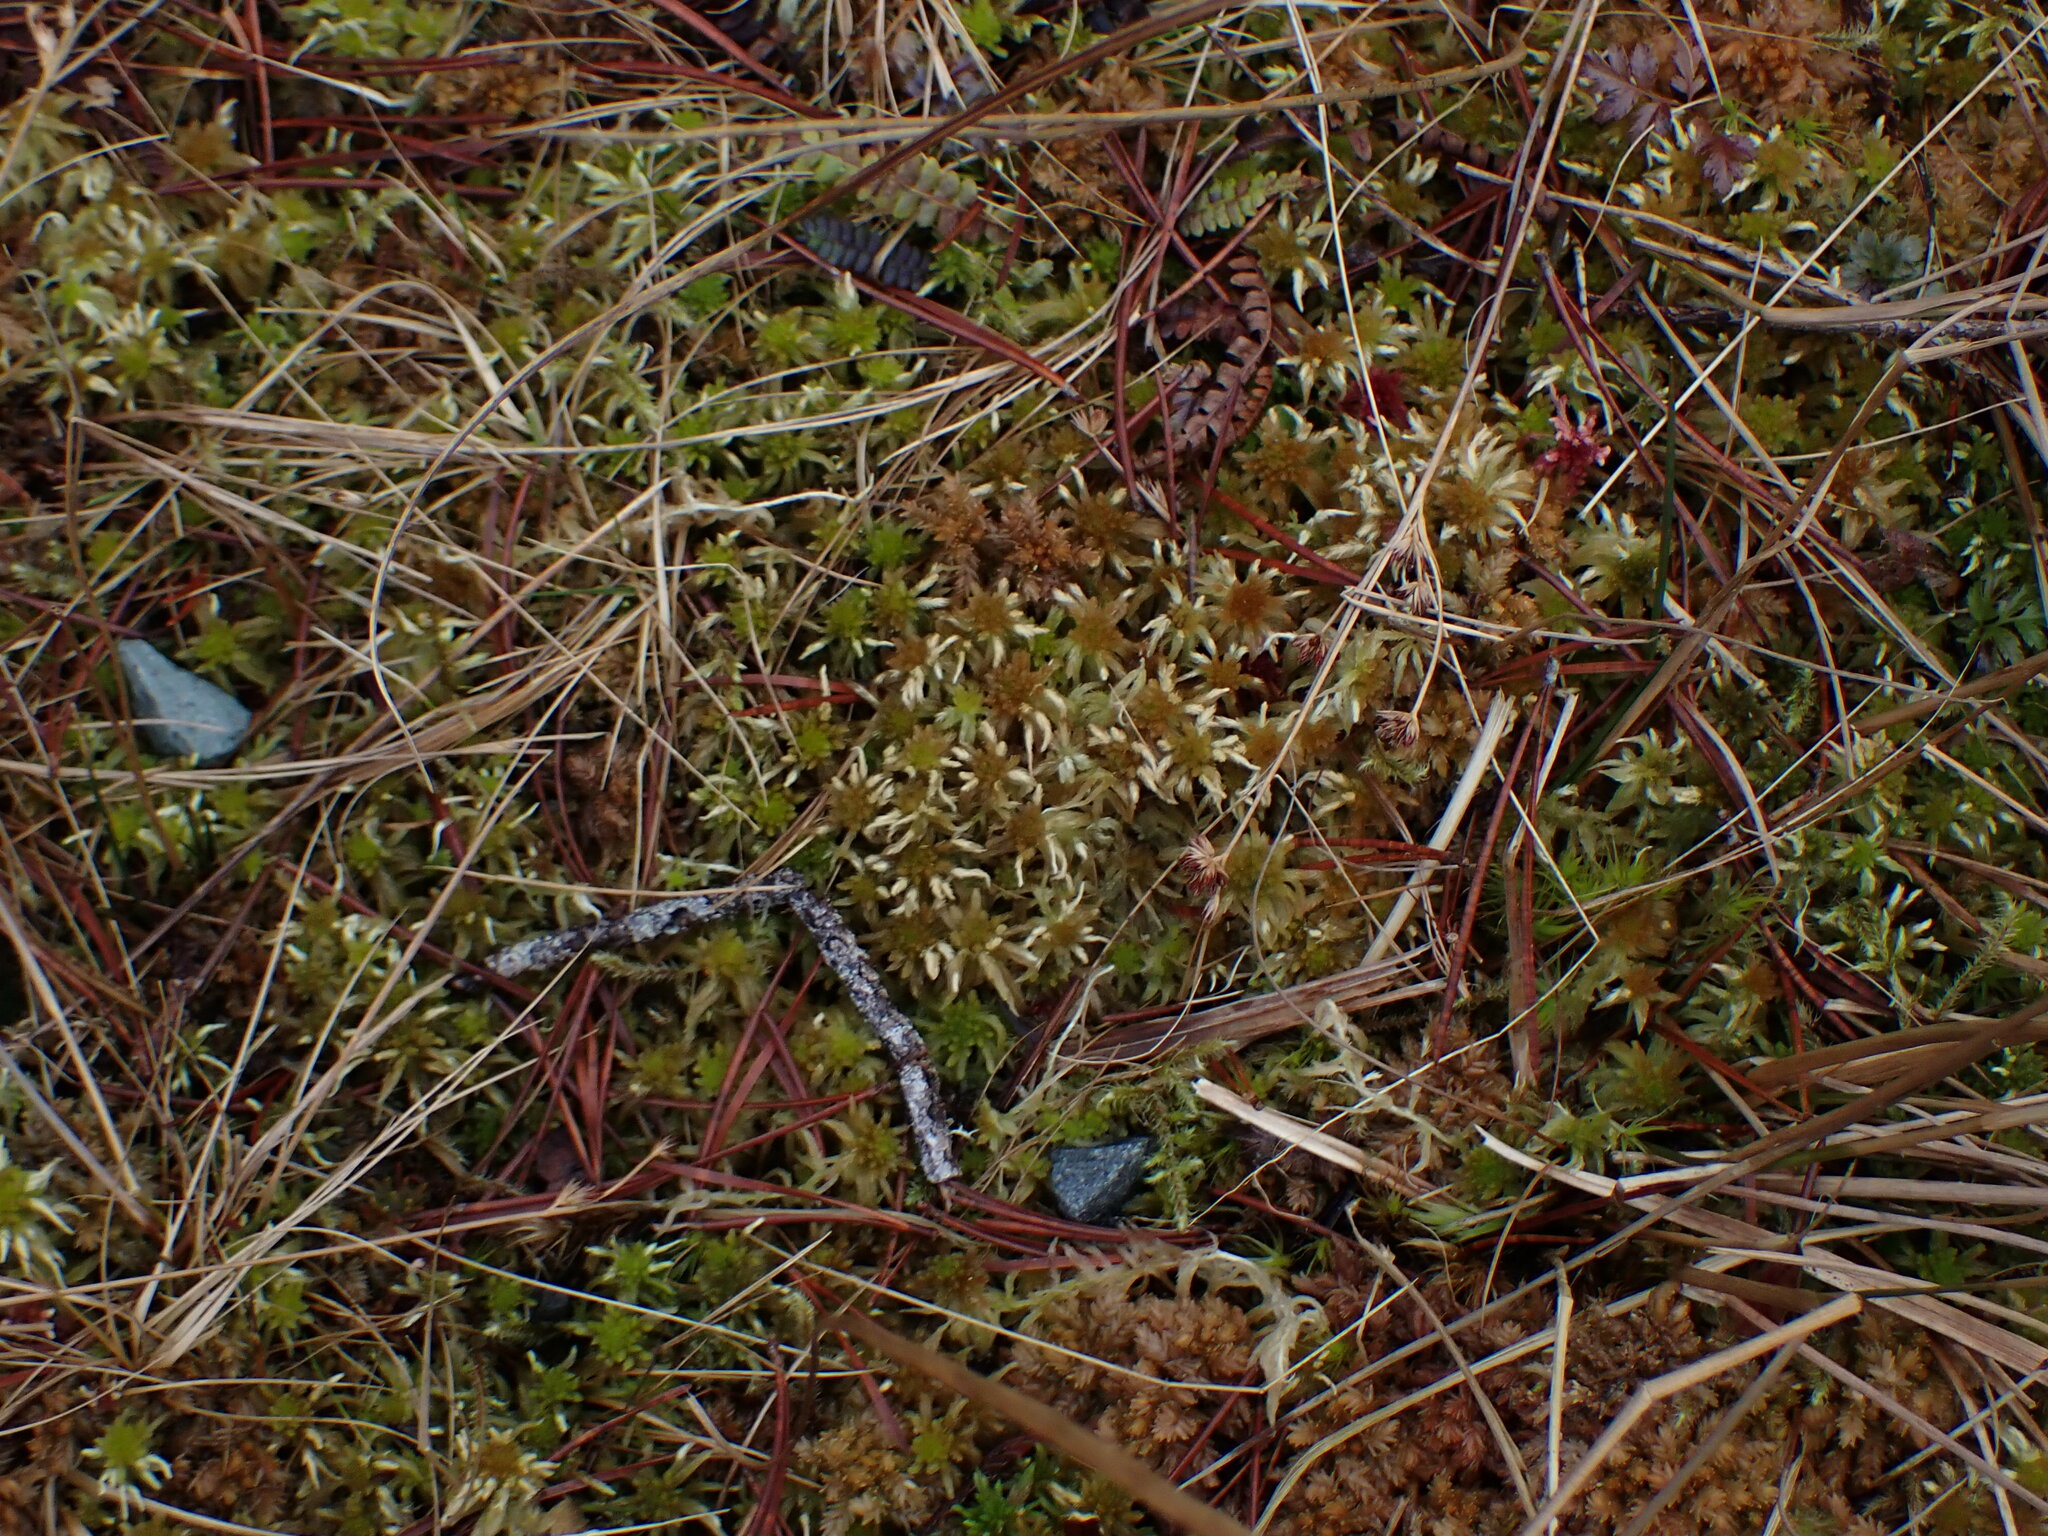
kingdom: Plantae
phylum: Bryophyta
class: Sphagnopsida
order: Sphagnales
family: Sphagnaceae
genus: Sphagnum
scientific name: Sphagnum pacificum
